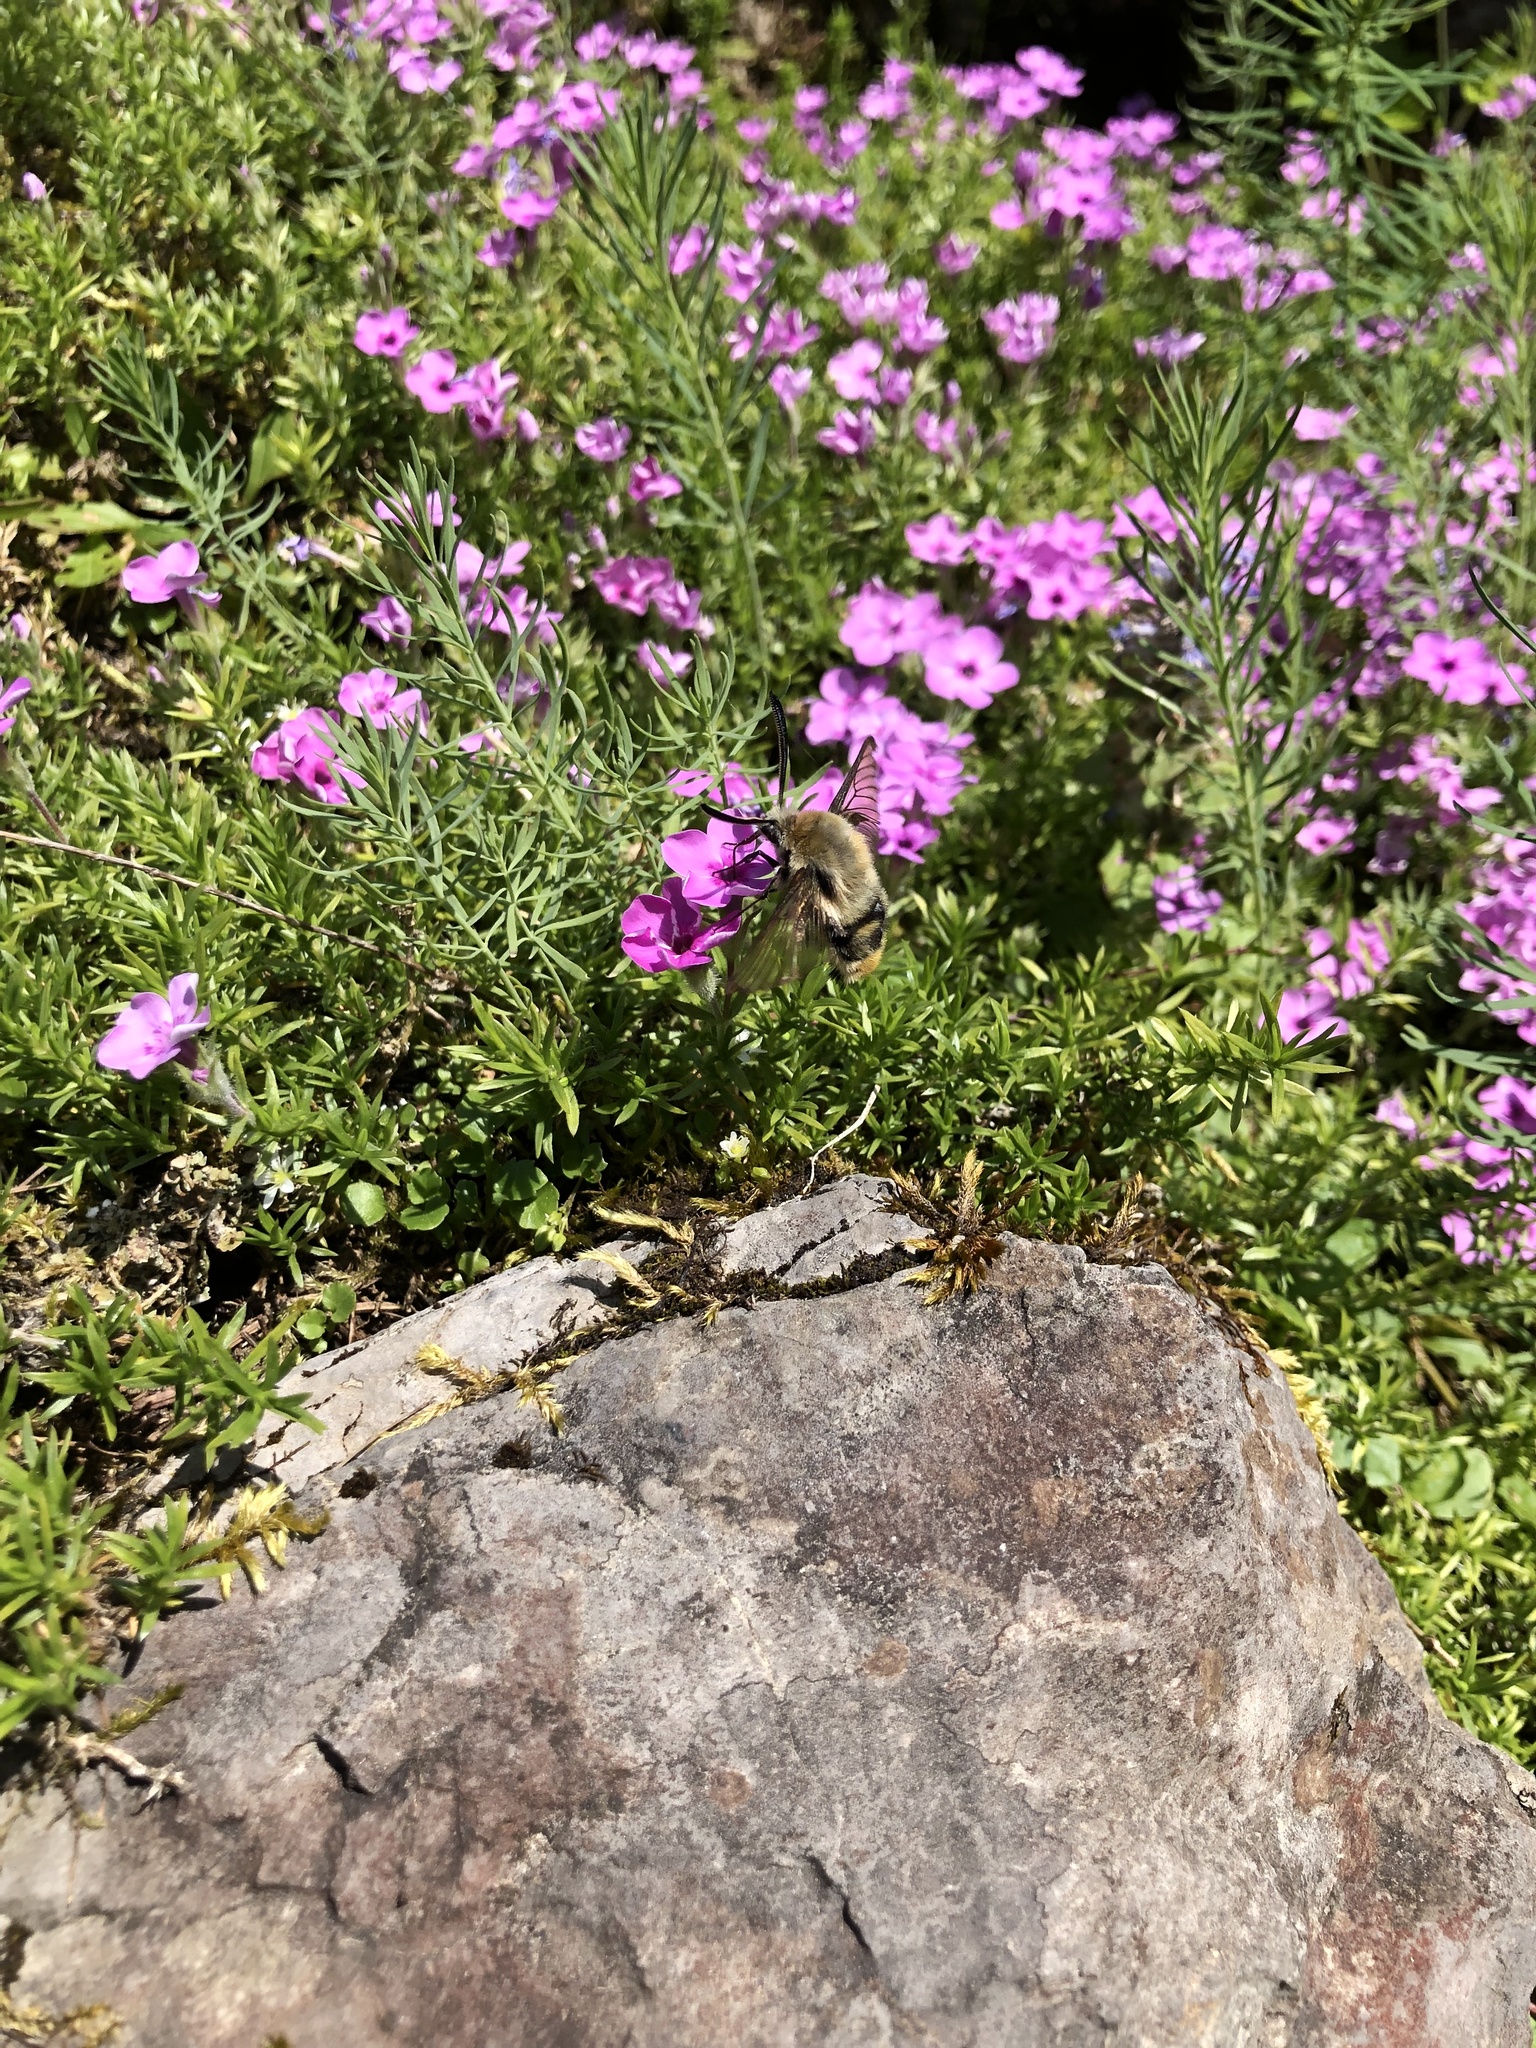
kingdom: Animalia
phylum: Arthropoda
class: Insecta
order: Lepidoptera
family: Sphingidae
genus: Hemaris
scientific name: Hemaris tityus
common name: Narrow-bordered bee hawk-moth
